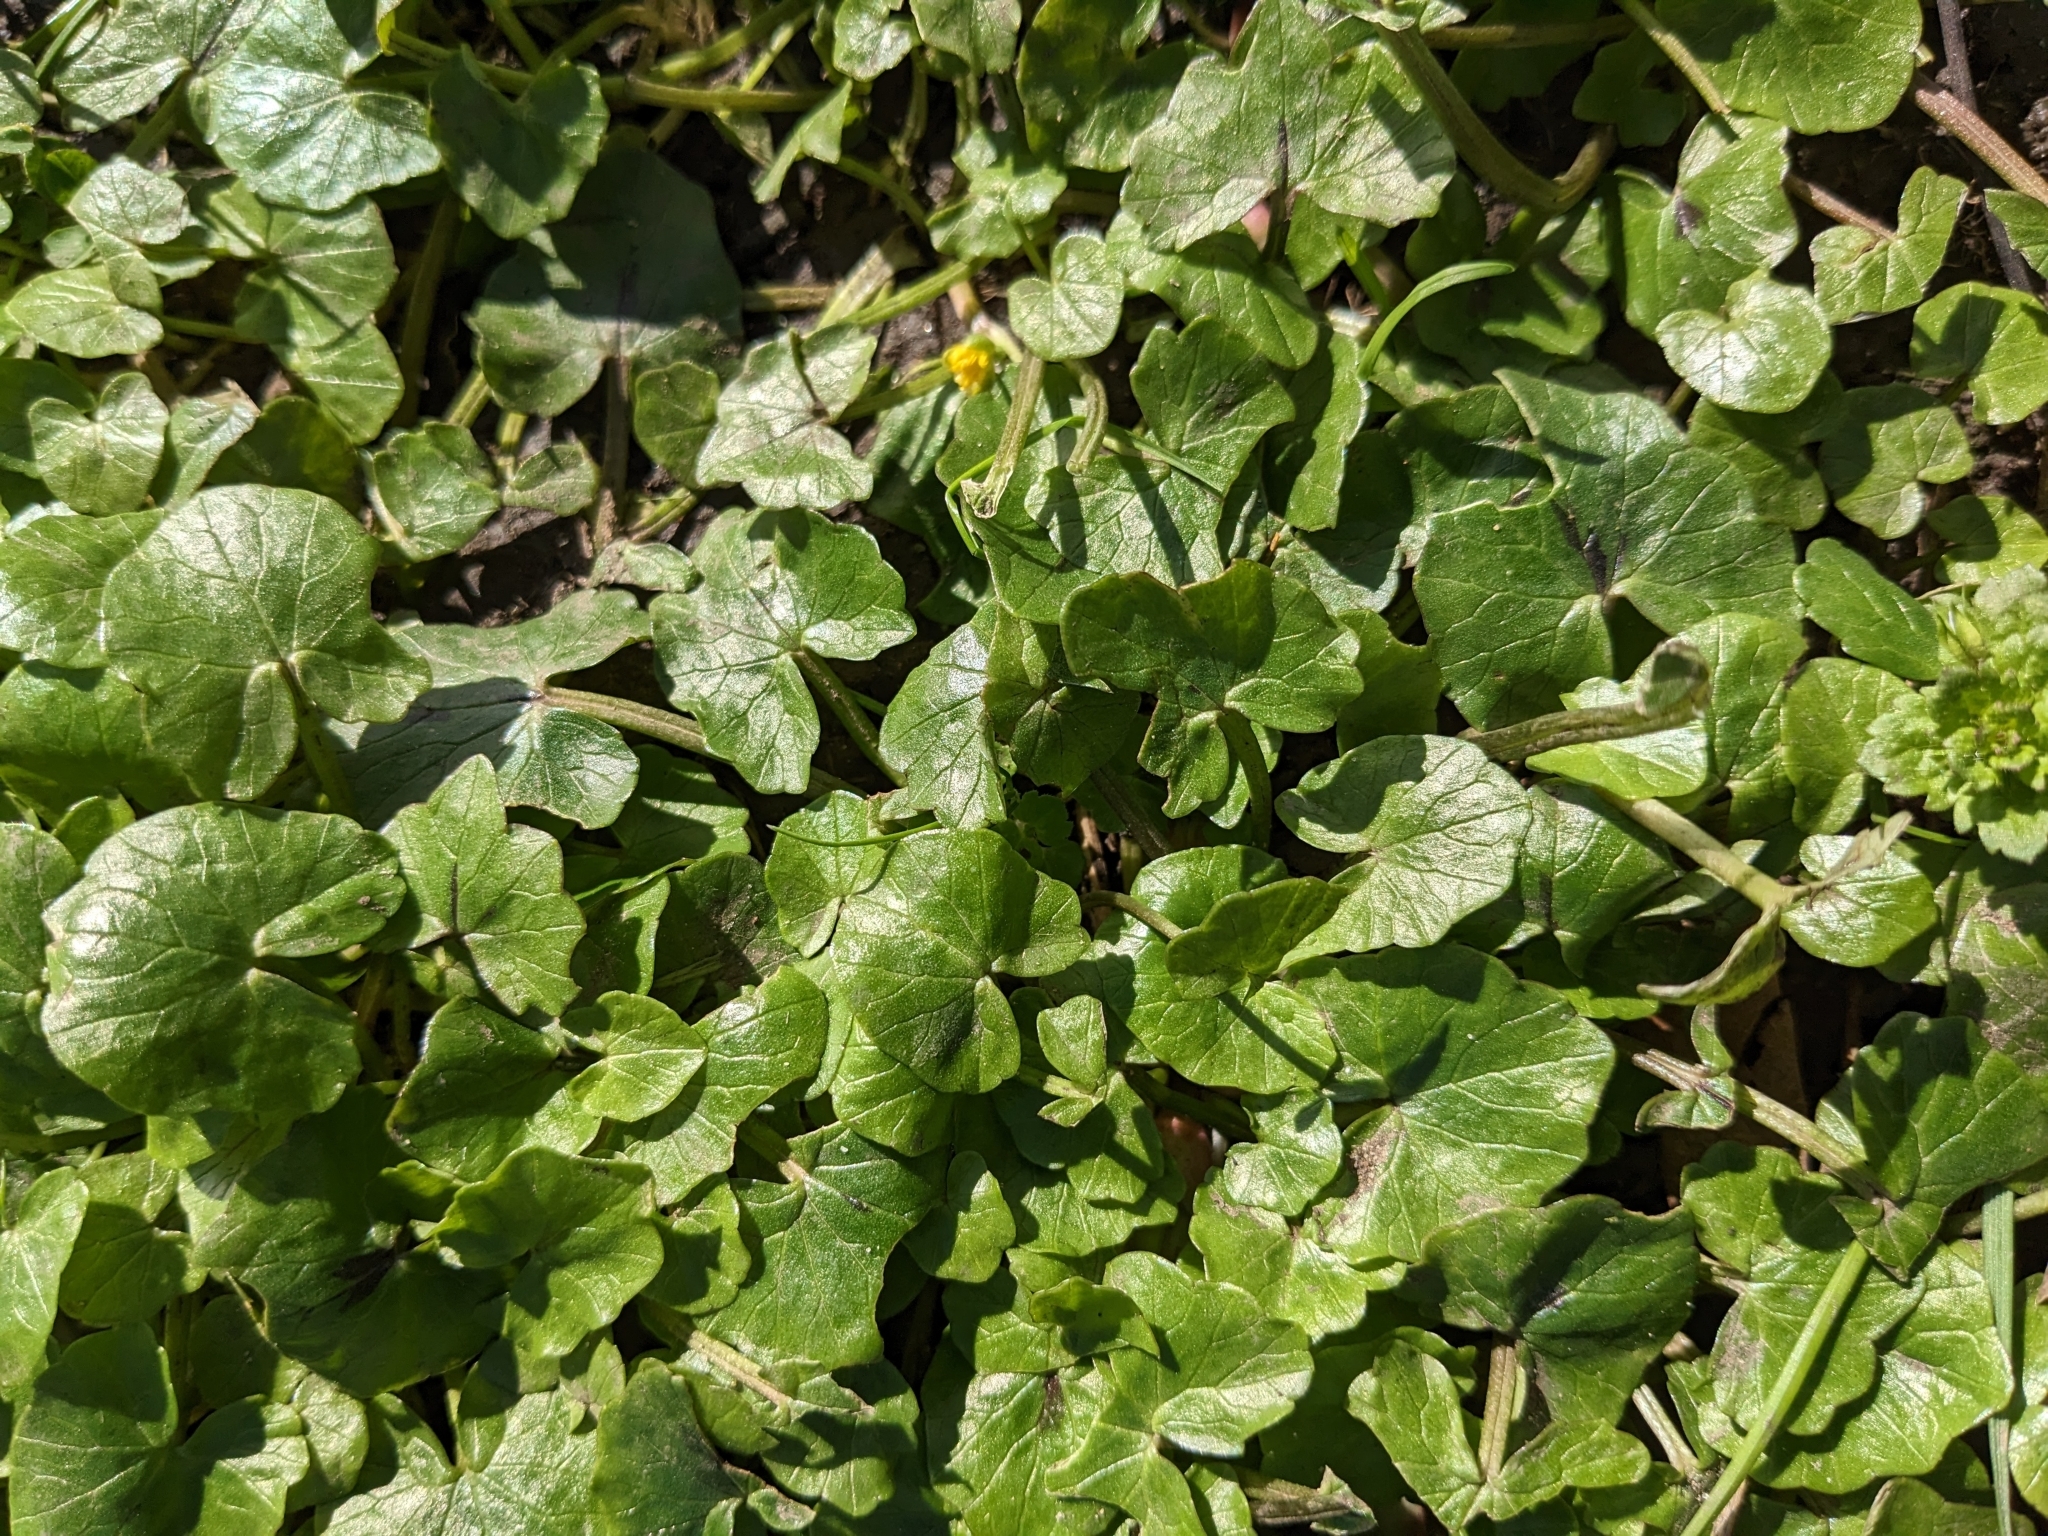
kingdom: Plantae
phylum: Tracheophyta
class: Magnoliopsida
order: Ranunculales
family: Ranunculaceae
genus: Ficaria
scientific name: Ficaria verna
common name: Lesser celandine
